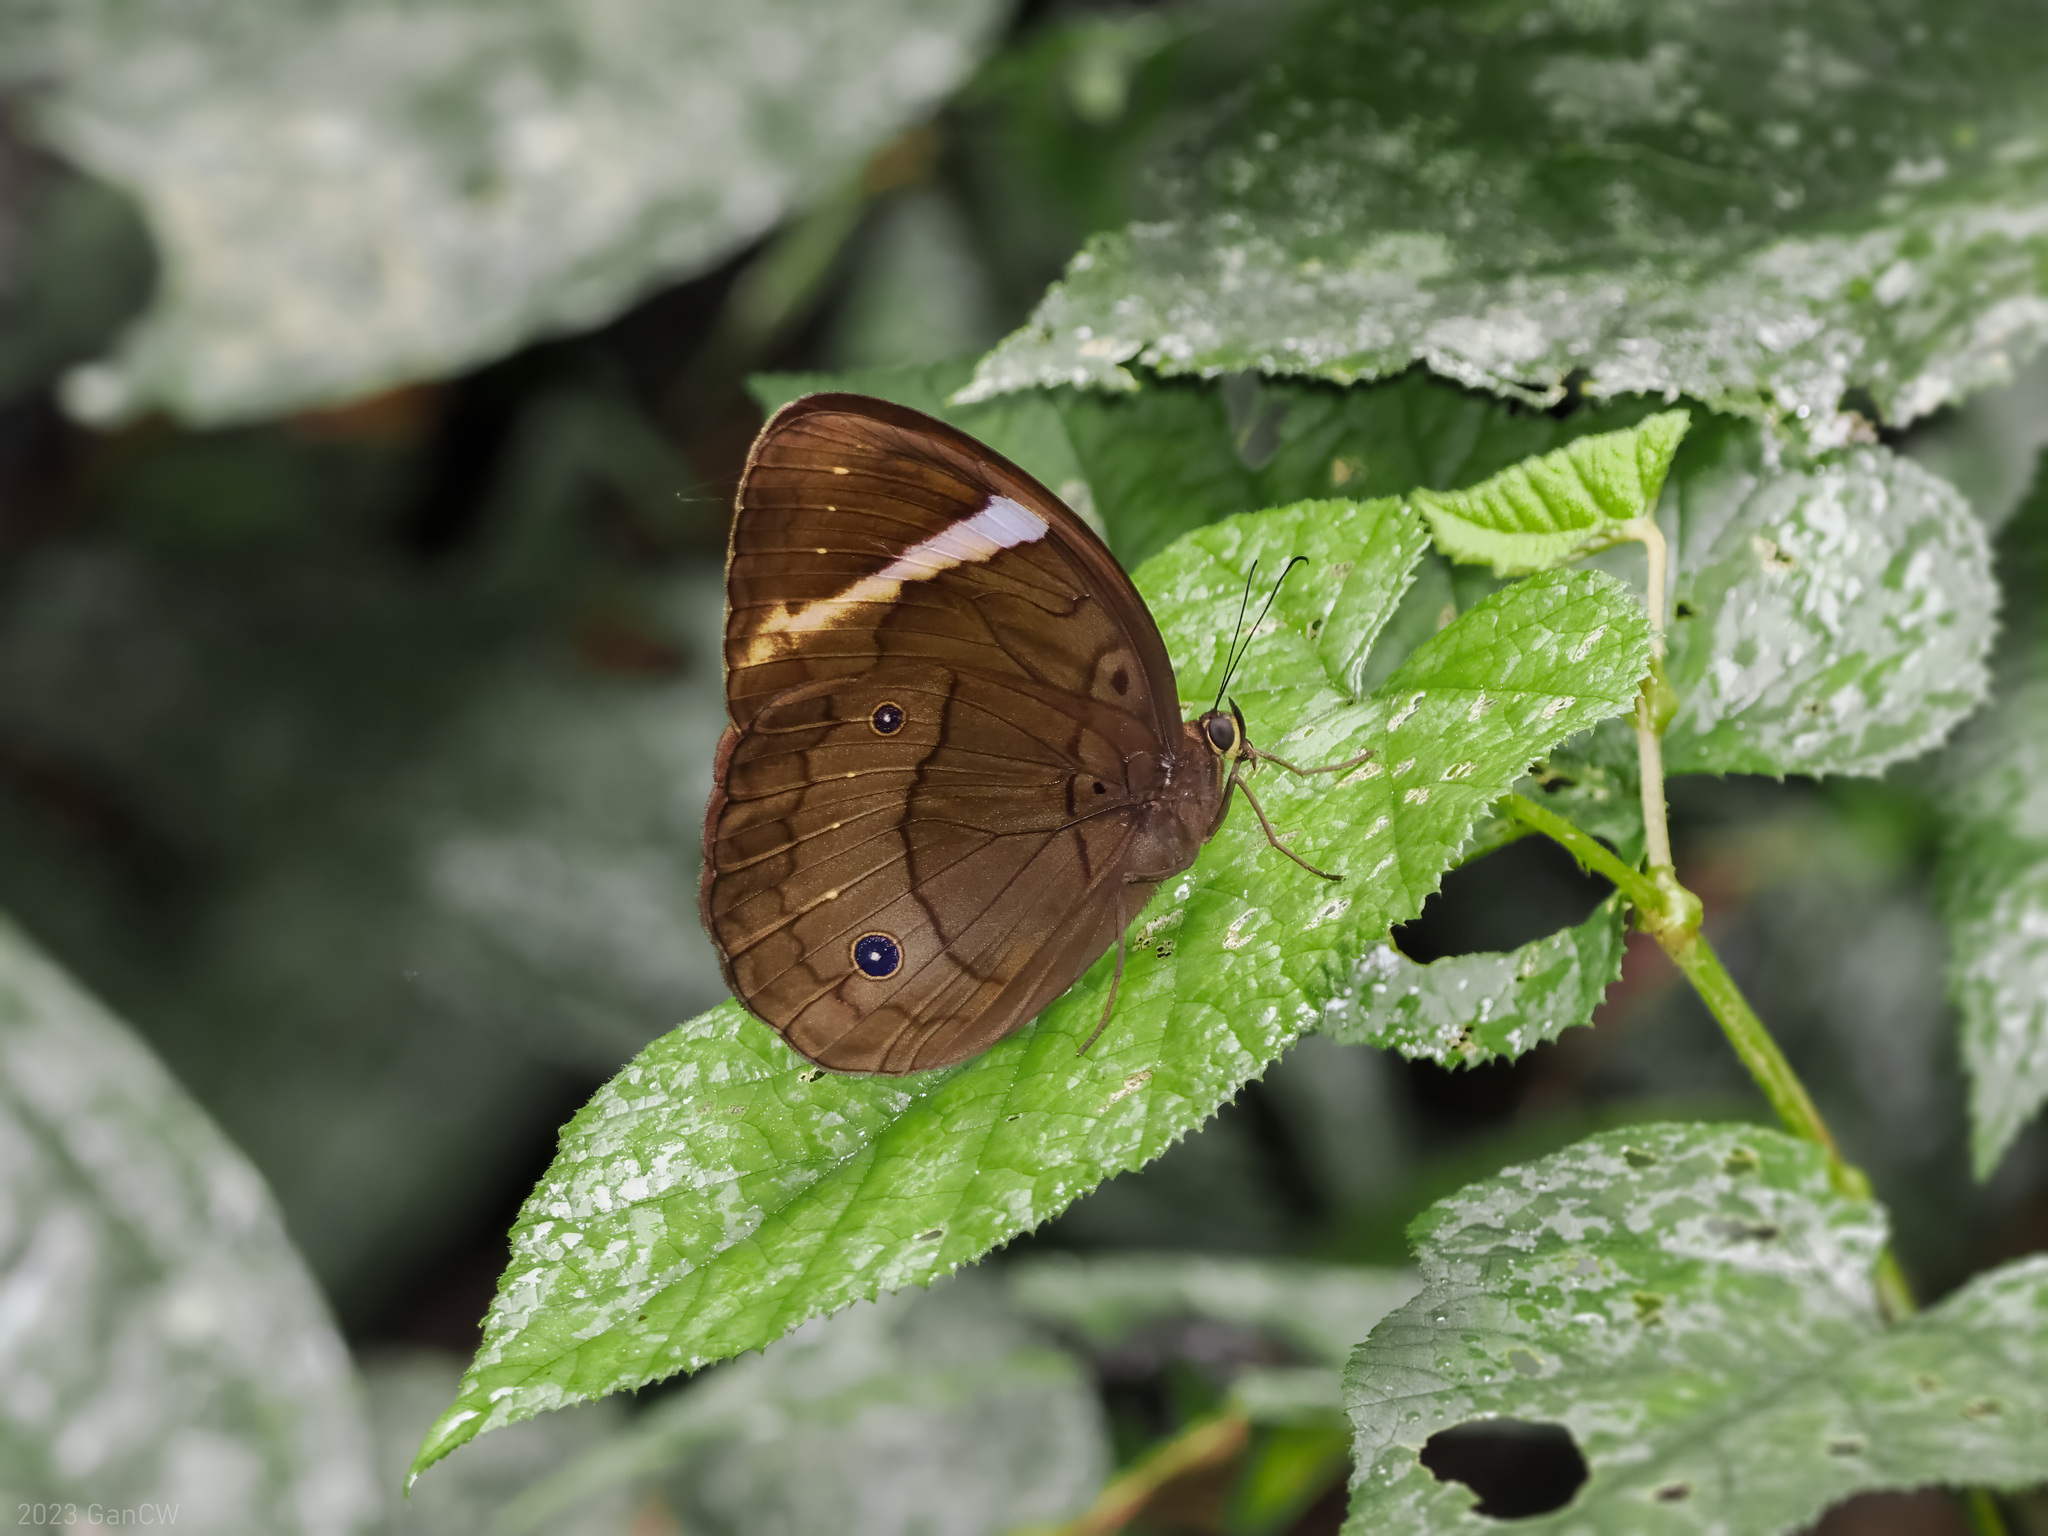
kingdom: Animalia
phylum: Arthropoda
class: Insecta
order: Lepidoptera
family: Nymphalidae
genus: Faunis
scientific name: Faunis menado
